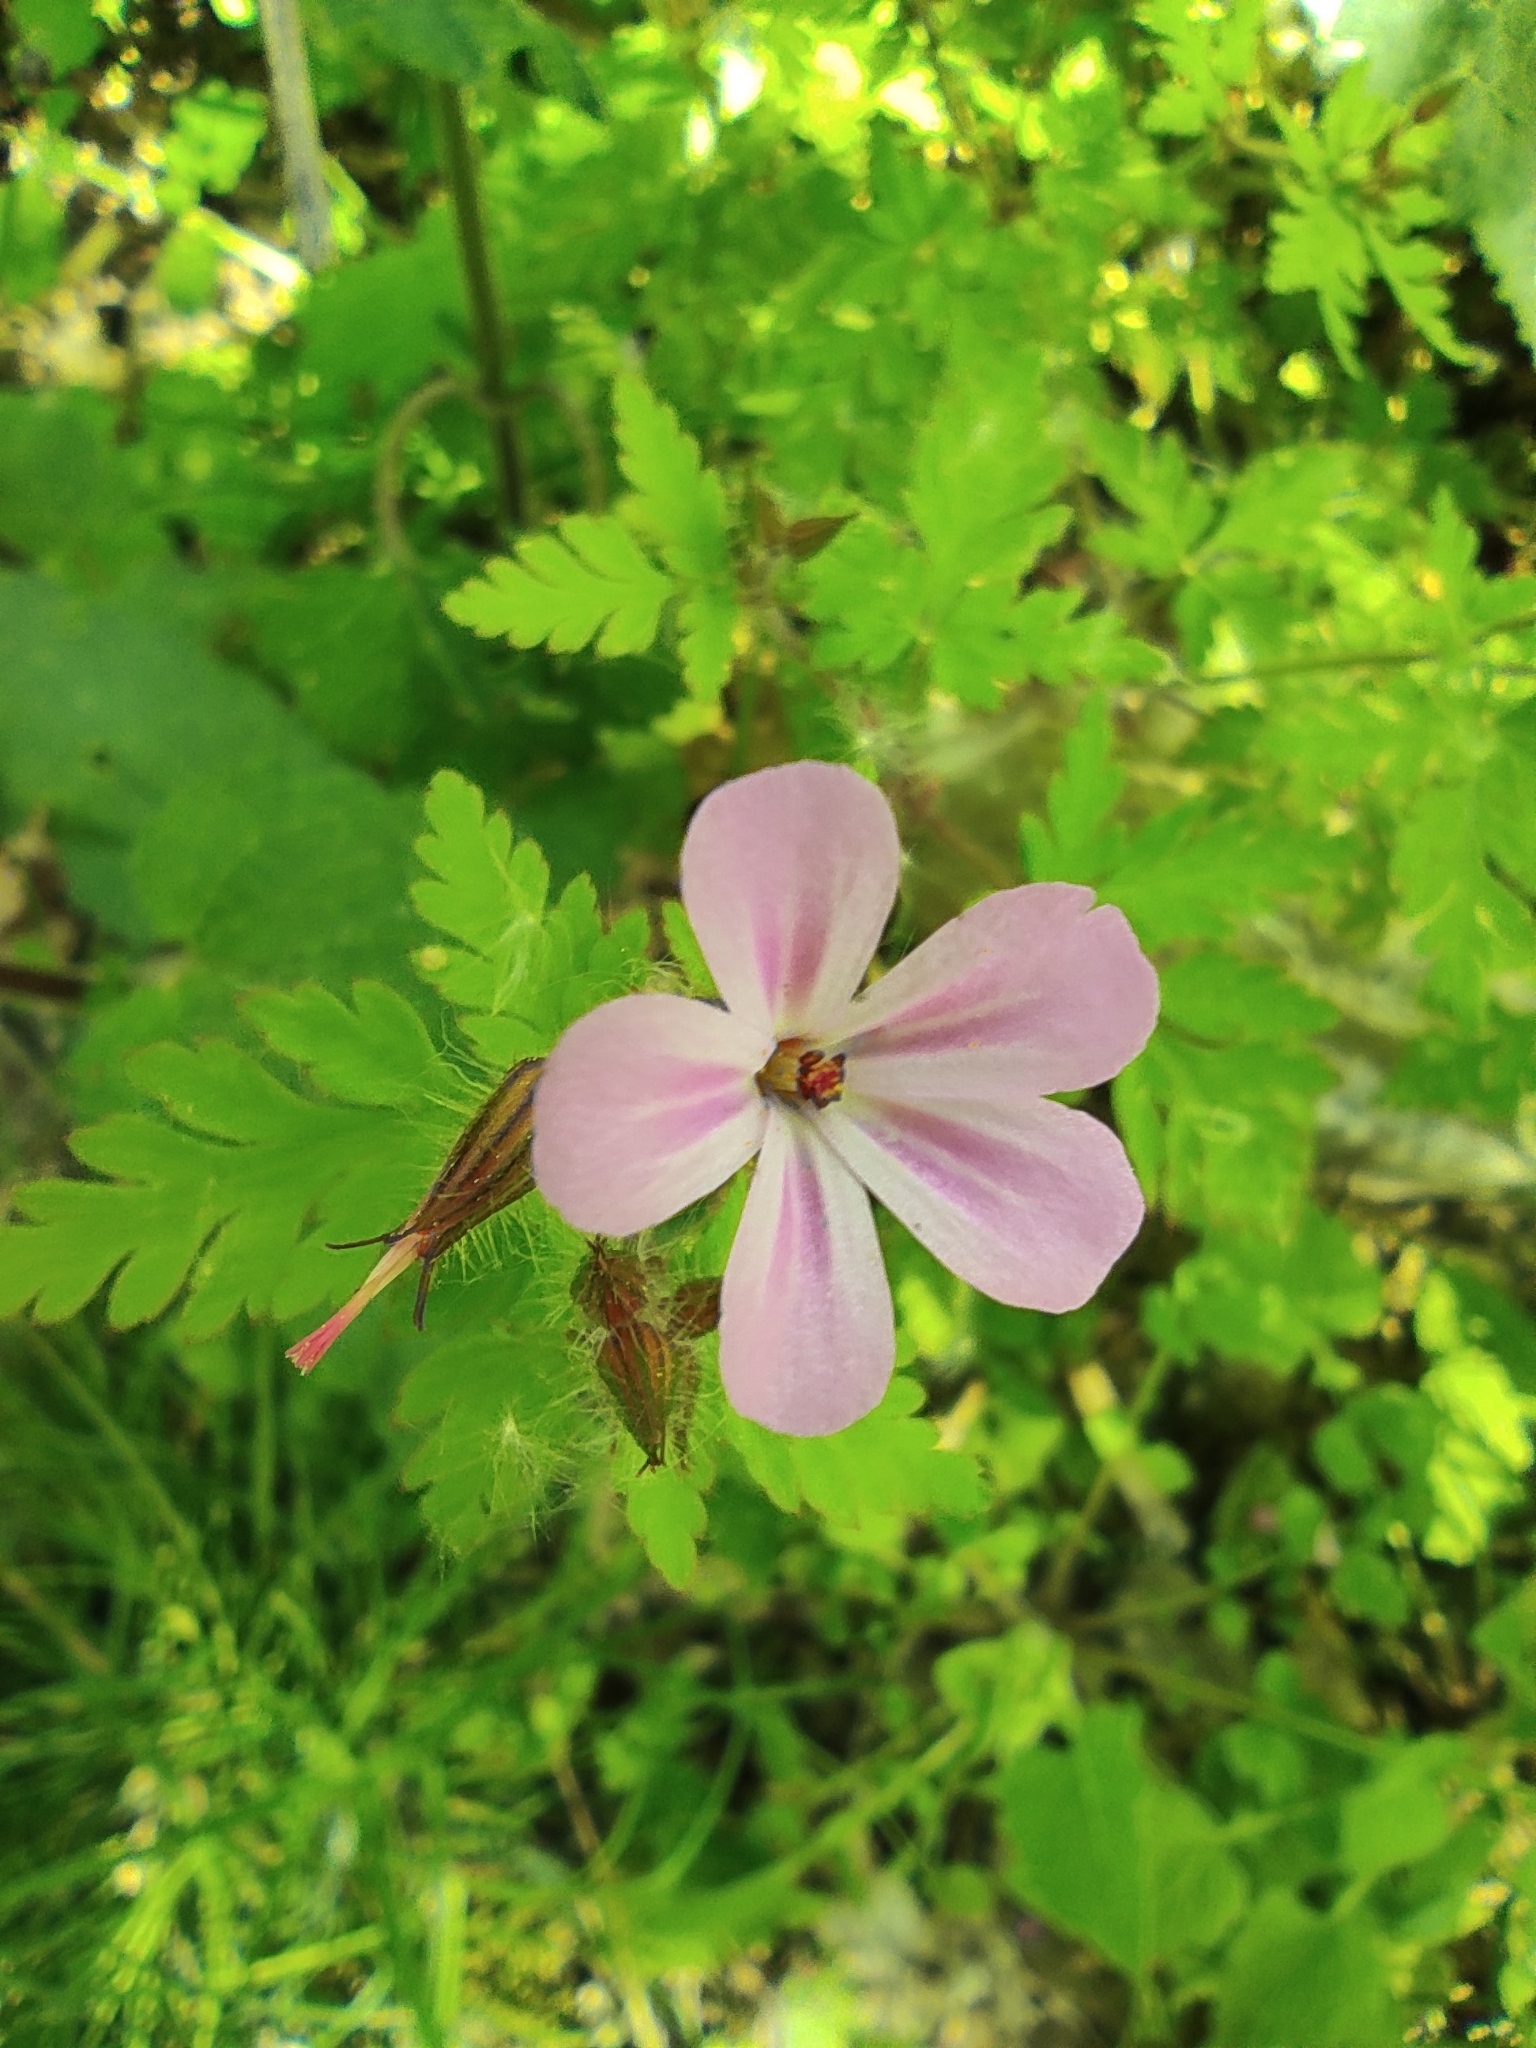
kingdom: Plantae
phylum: Tracheophyta
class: Magnoliopsida
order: Geraniales
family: Geraniaceae
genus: Geranium
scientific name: Geranium robertianum
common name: Herb-robert
